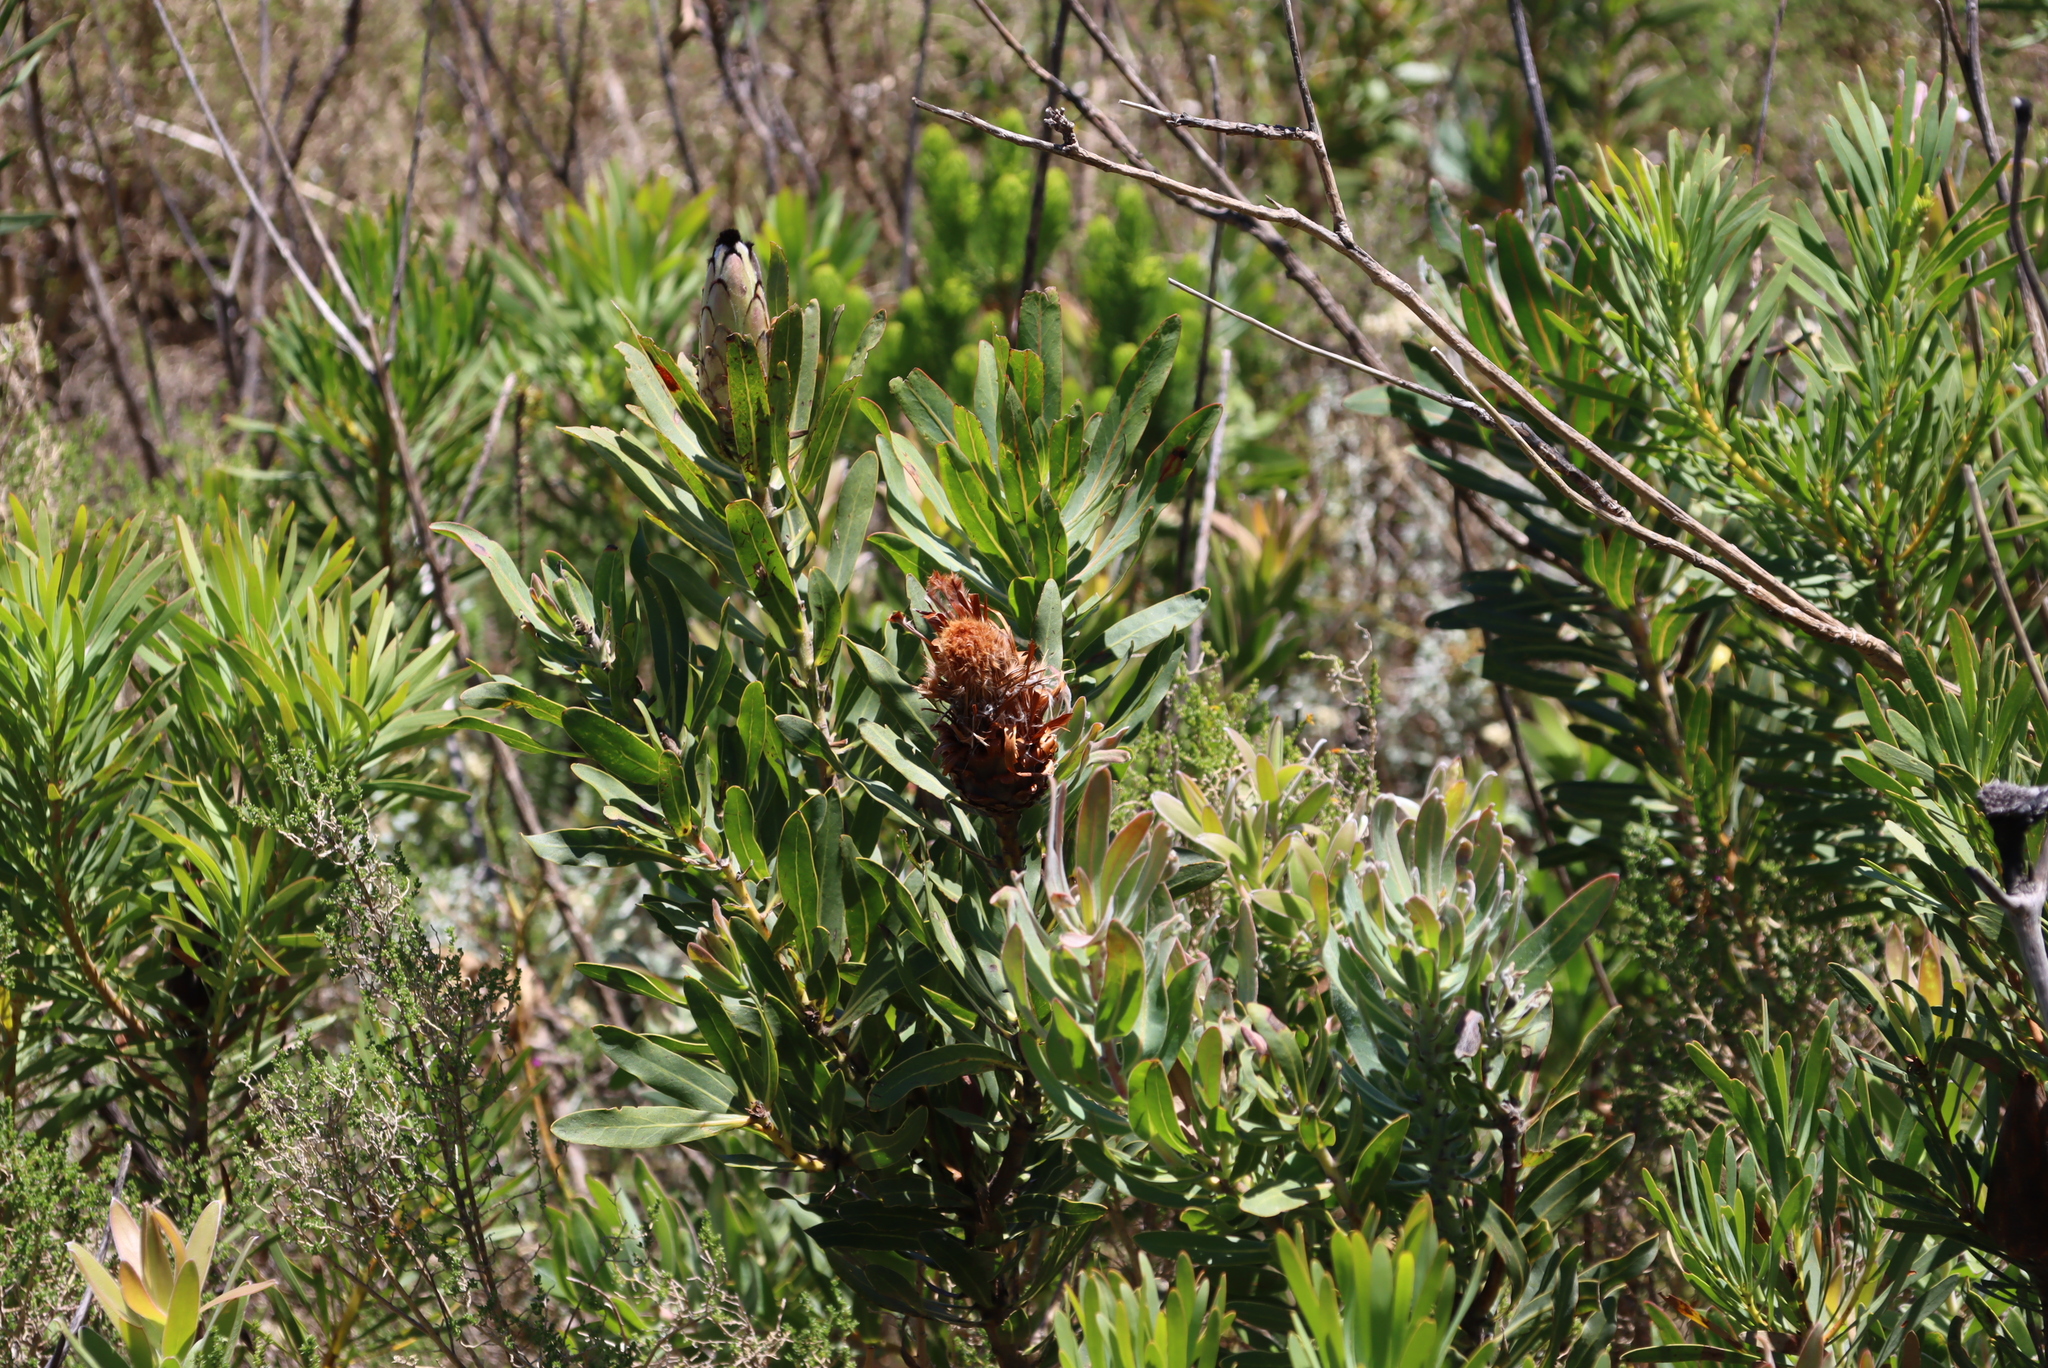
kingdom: Plantae
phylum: Tracheophyta
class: Magnoliopsida
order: Proteales
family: Proteaceae
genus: Protea
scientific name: Protea laurifolia
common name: Grey-leaf sugarbsh
